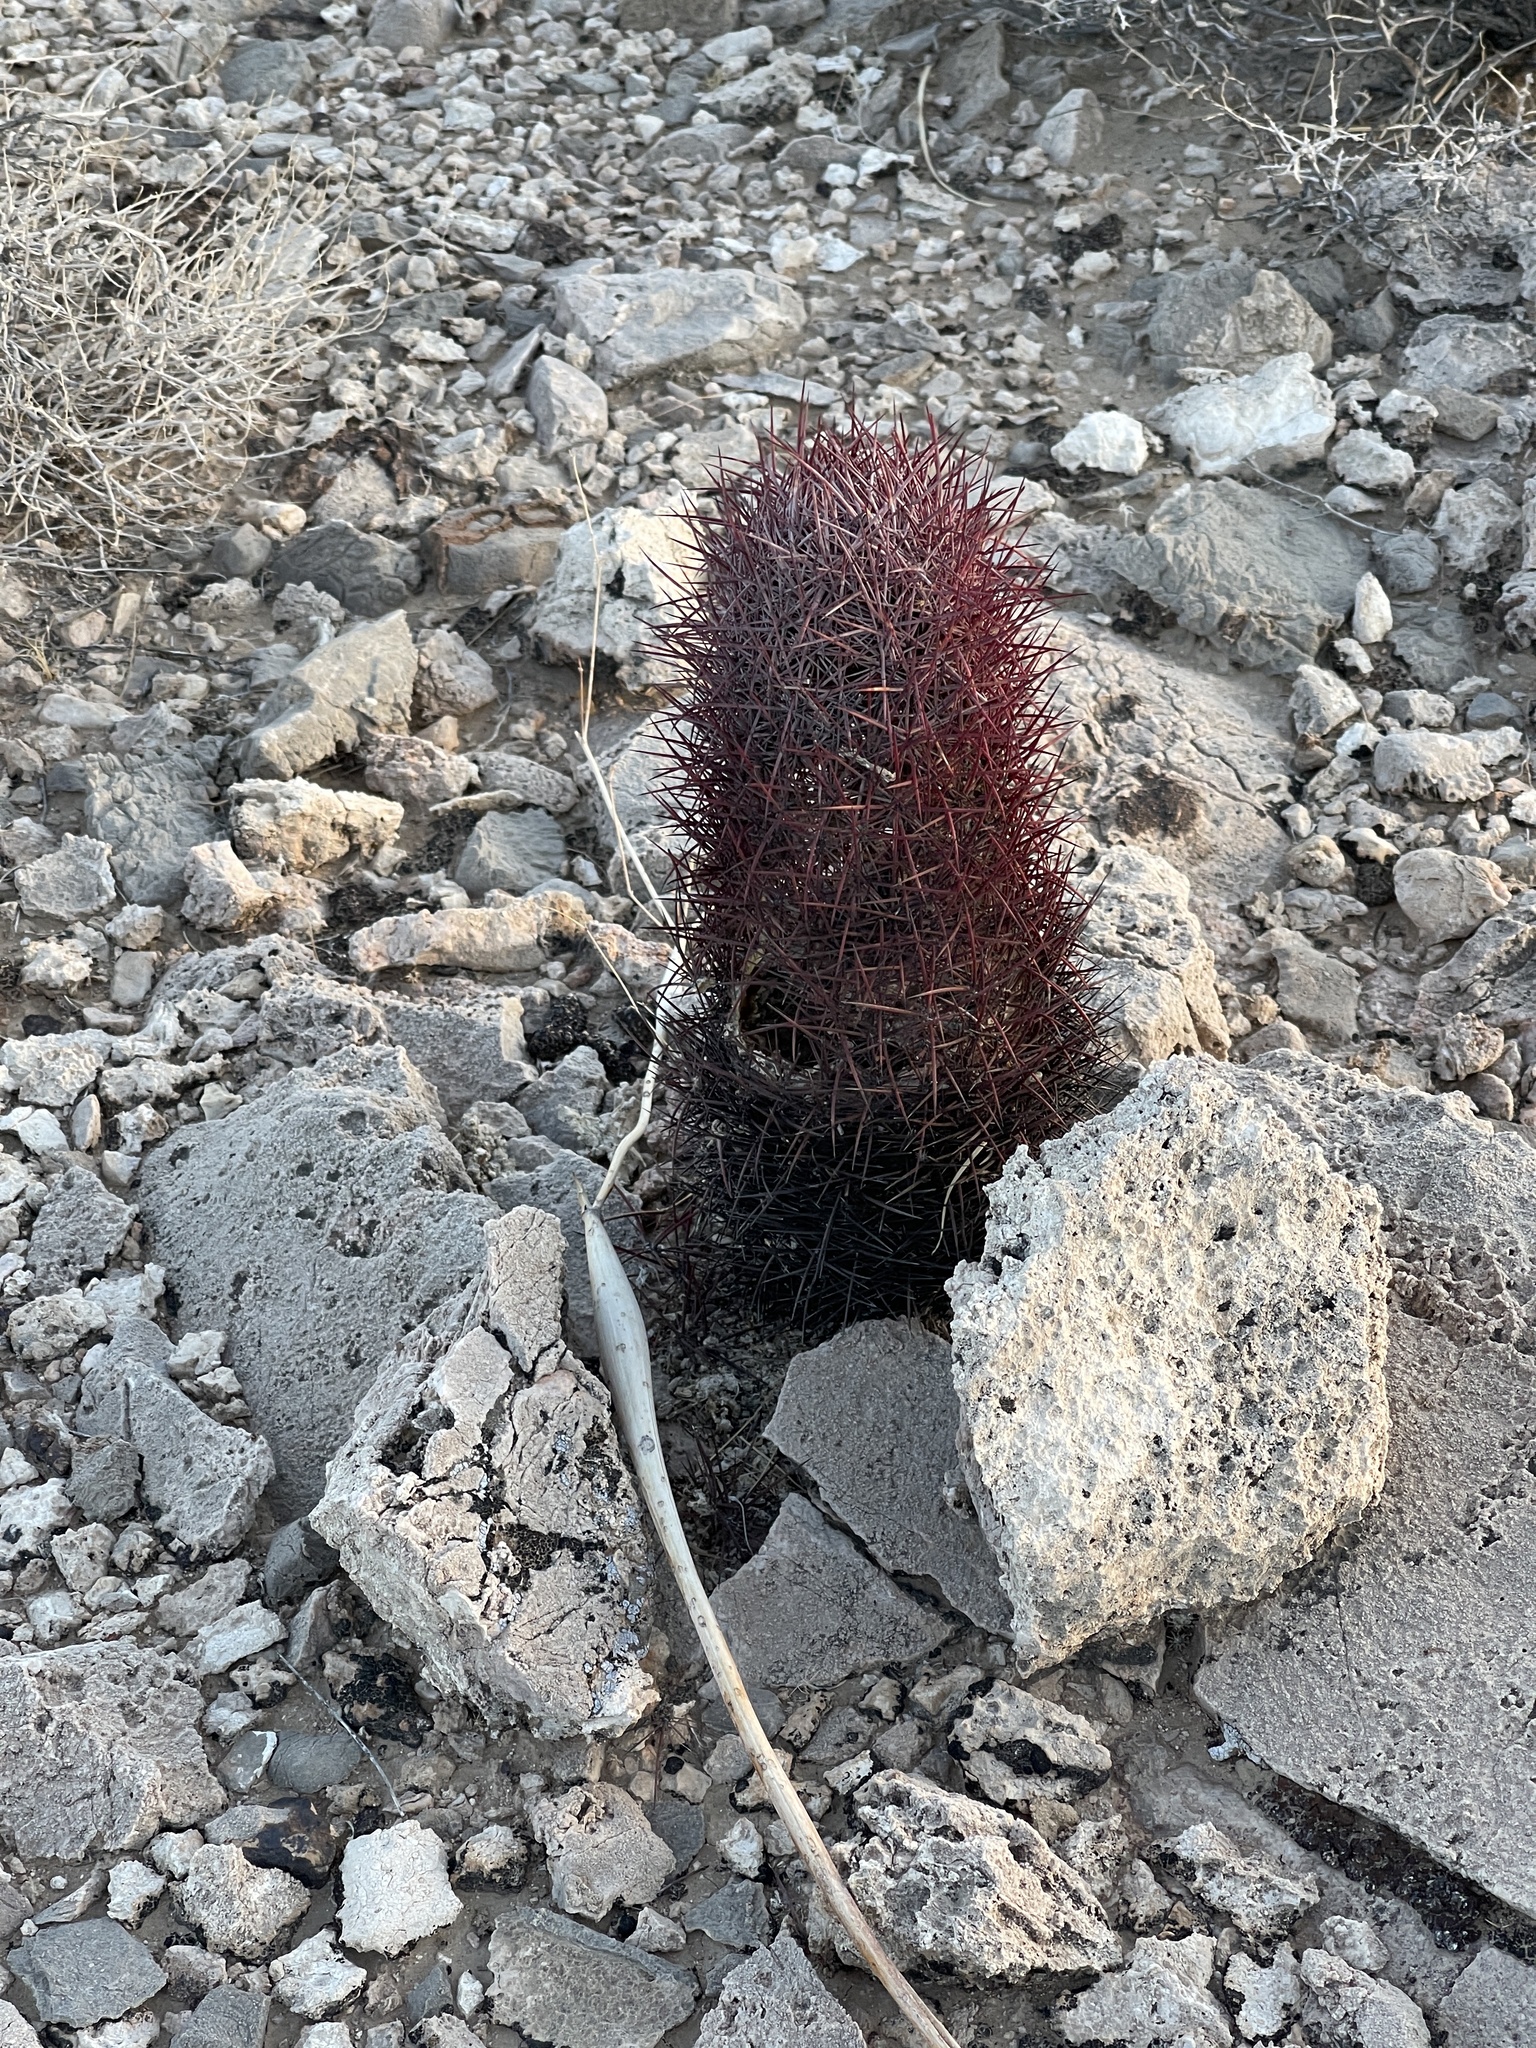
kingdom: Plantae
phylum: Tracheophyta
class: Magnoliopsida
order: Caryophyllales
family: Cactaceae
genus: Sclerocactus
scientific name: Sclerocactus johnsonii
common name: Eight-spine fishhook cactus
